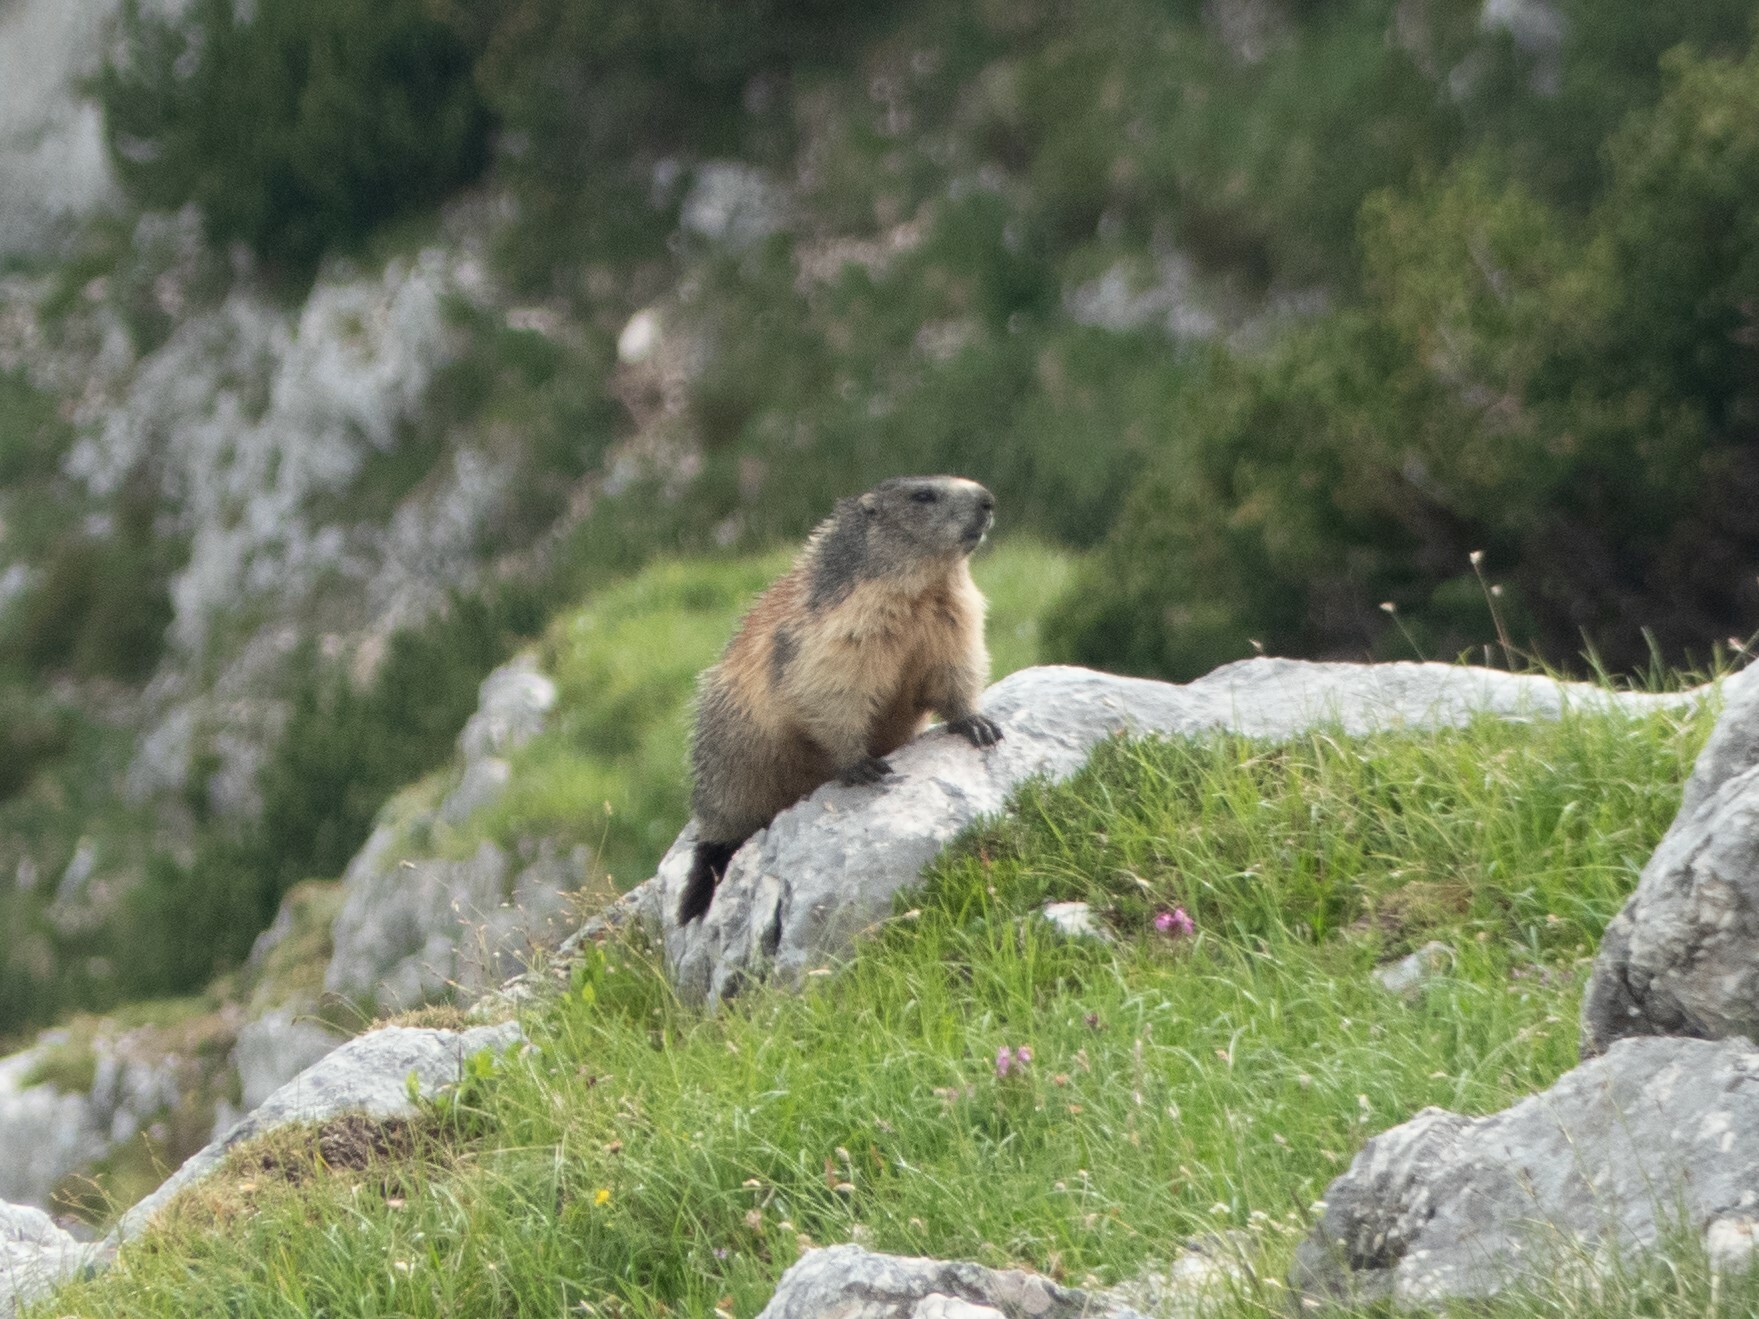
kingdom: Animalia
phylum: Chordata
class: Mammalia
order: Rodentia
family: Sciuridae
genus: Marmota
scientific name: Marmota marmota
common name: Alpine marmot
